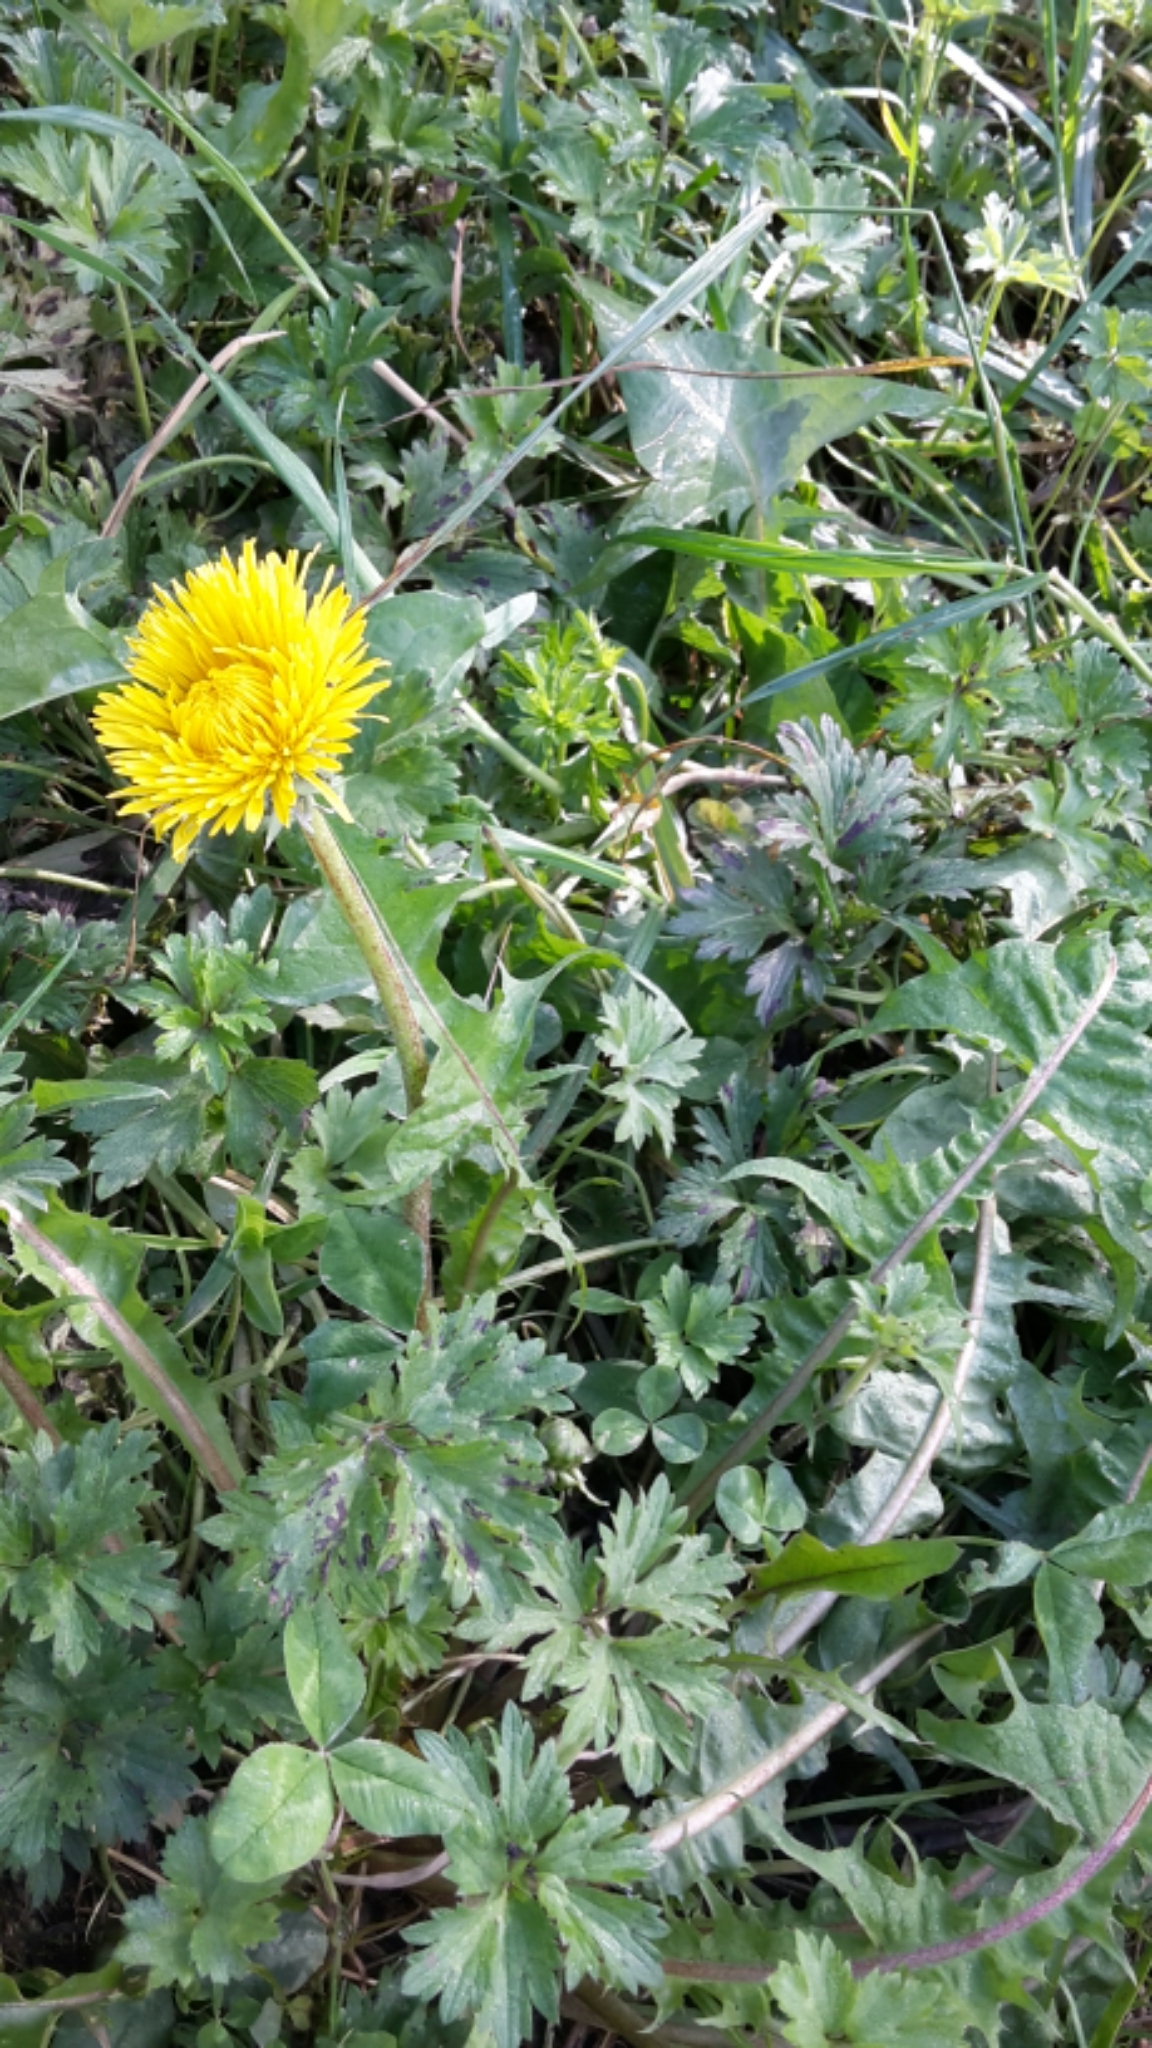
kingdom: Plantae
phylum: Tracheophyta
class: Magnoliopsida
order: Asterales
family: Asteraceae
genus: Taraxacum
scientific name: Taraxacum officinale
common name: Common dandelion
